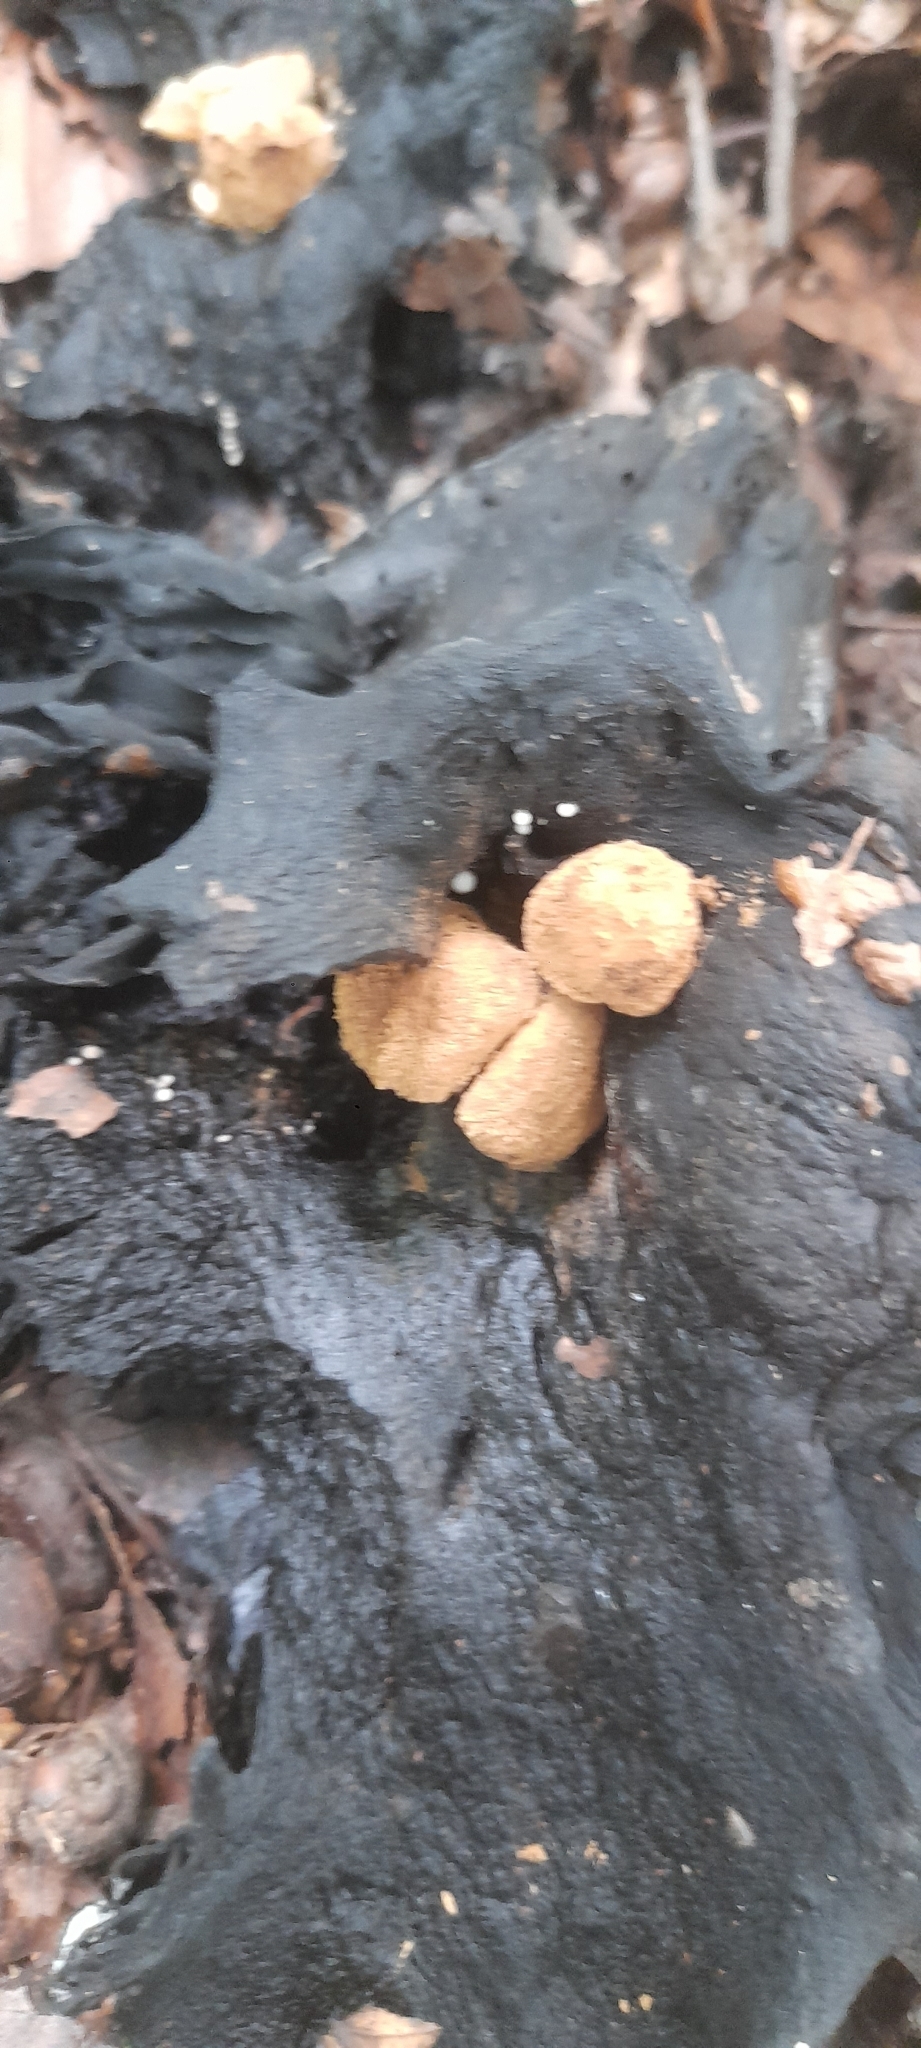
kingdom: Fungi
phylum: Basidiomycota
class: Agaricomycetes
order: Agaricales
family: Lyophyllaceae
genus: Asterophora
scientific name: Asterophora lycoperdoides
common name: Pick-a-back toadstool
